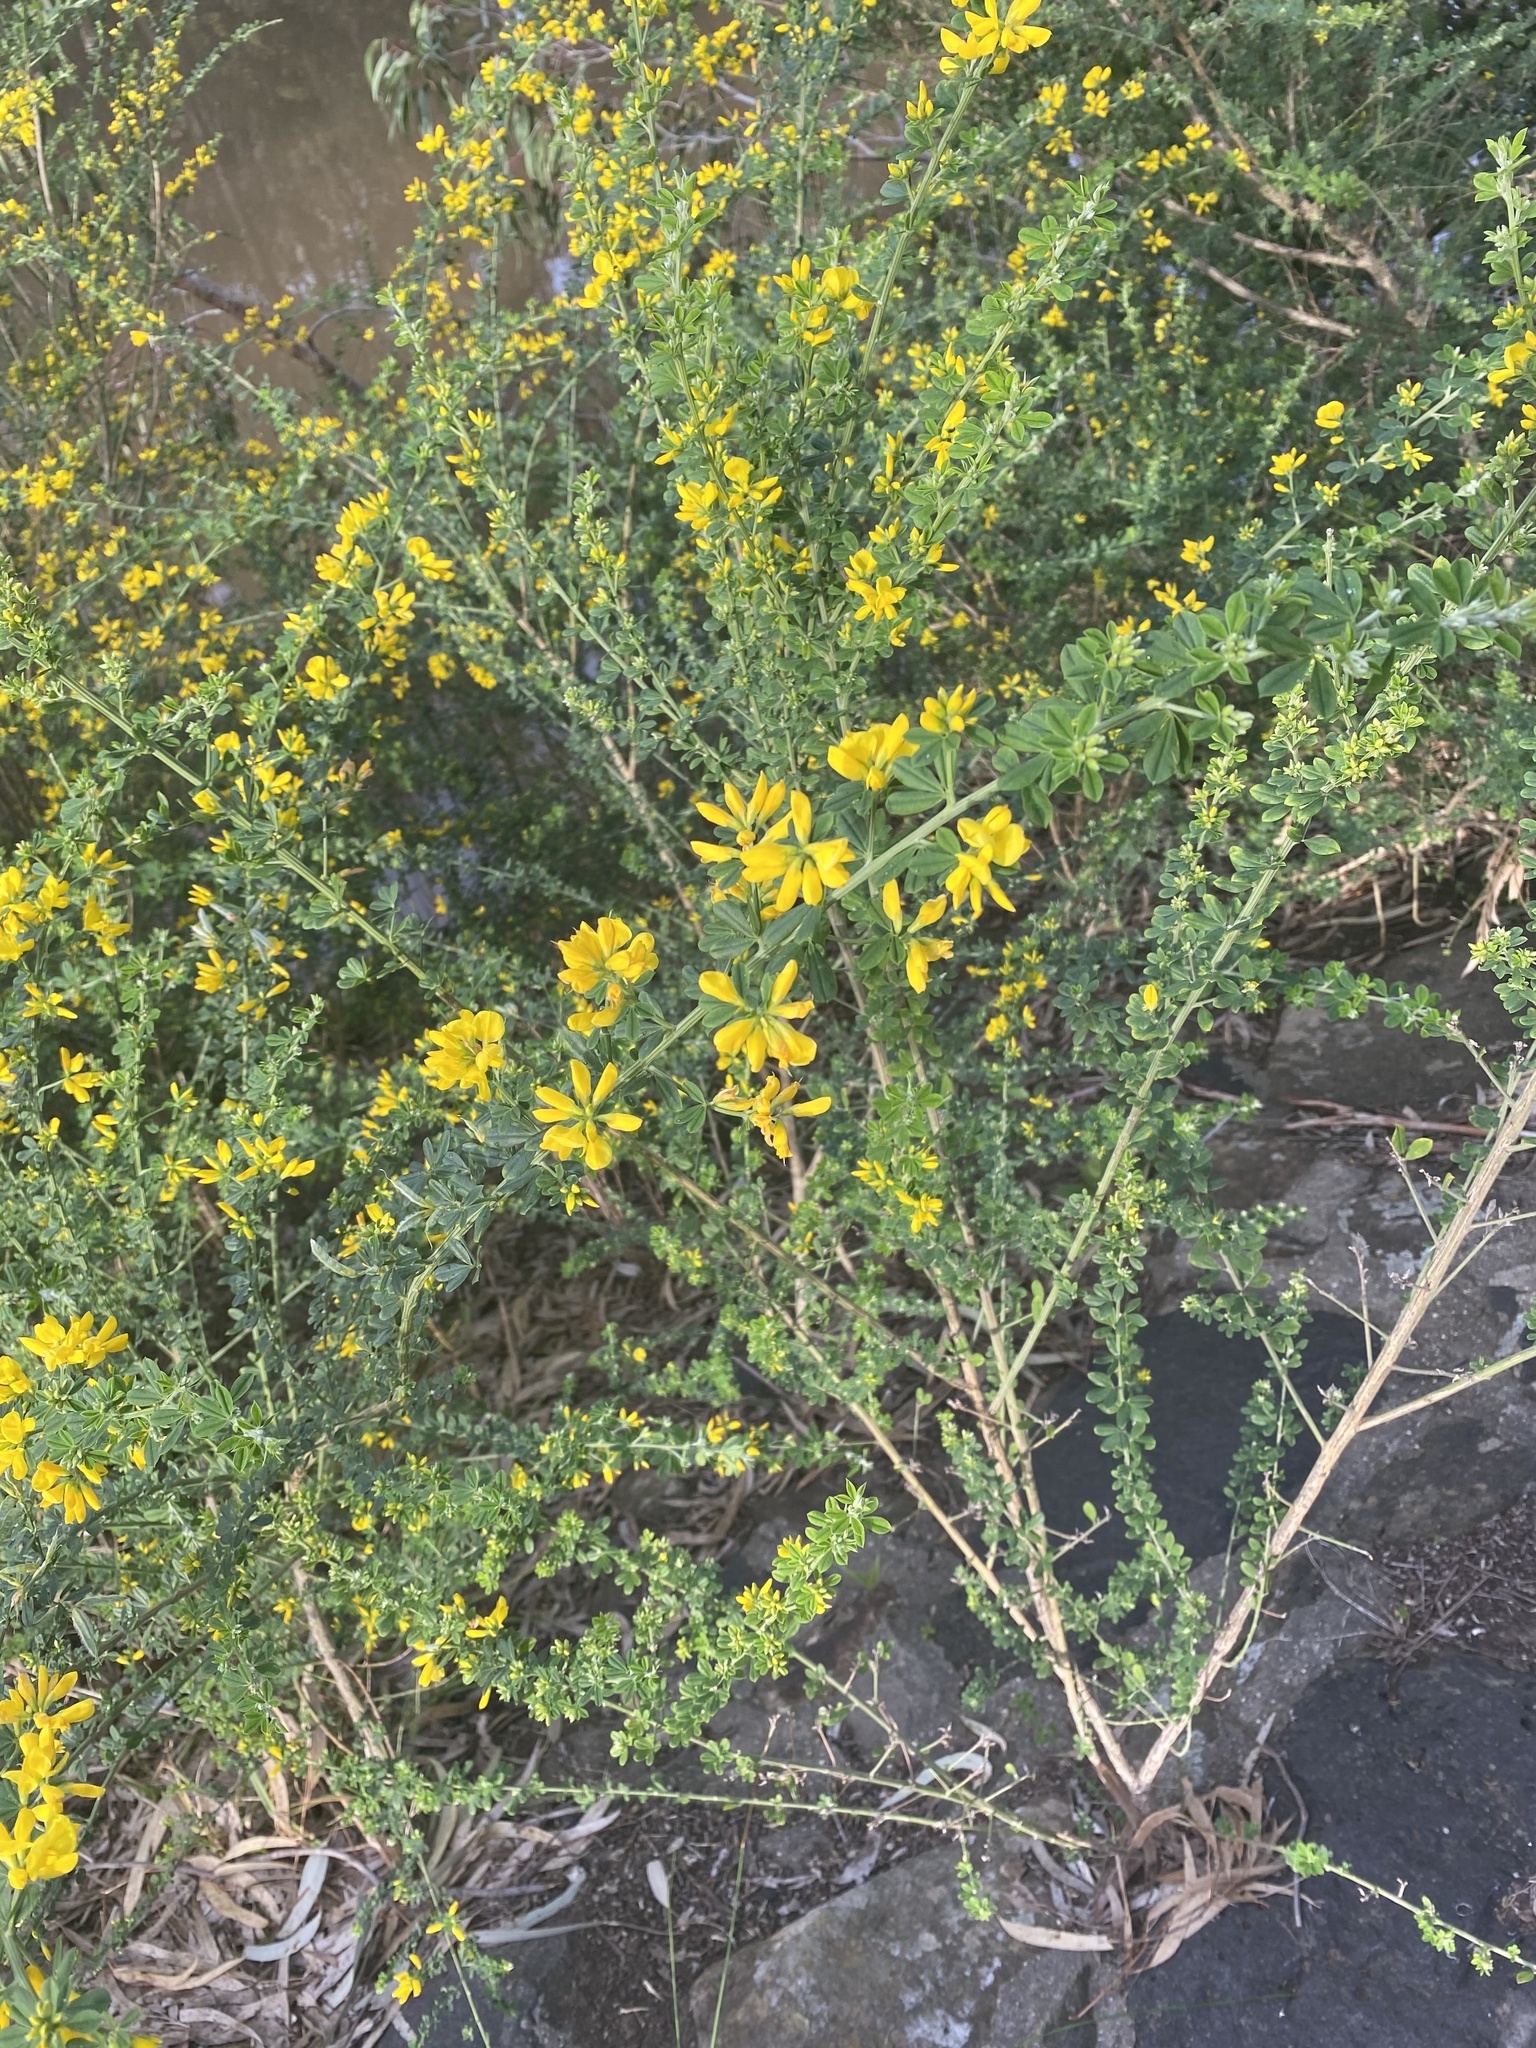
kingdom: Plantae
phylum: Tracheophyta
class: Magnoliopsida
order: Asterales
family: Asteraceae
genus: Osteospermum
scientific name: Osteospermum moniliferum
